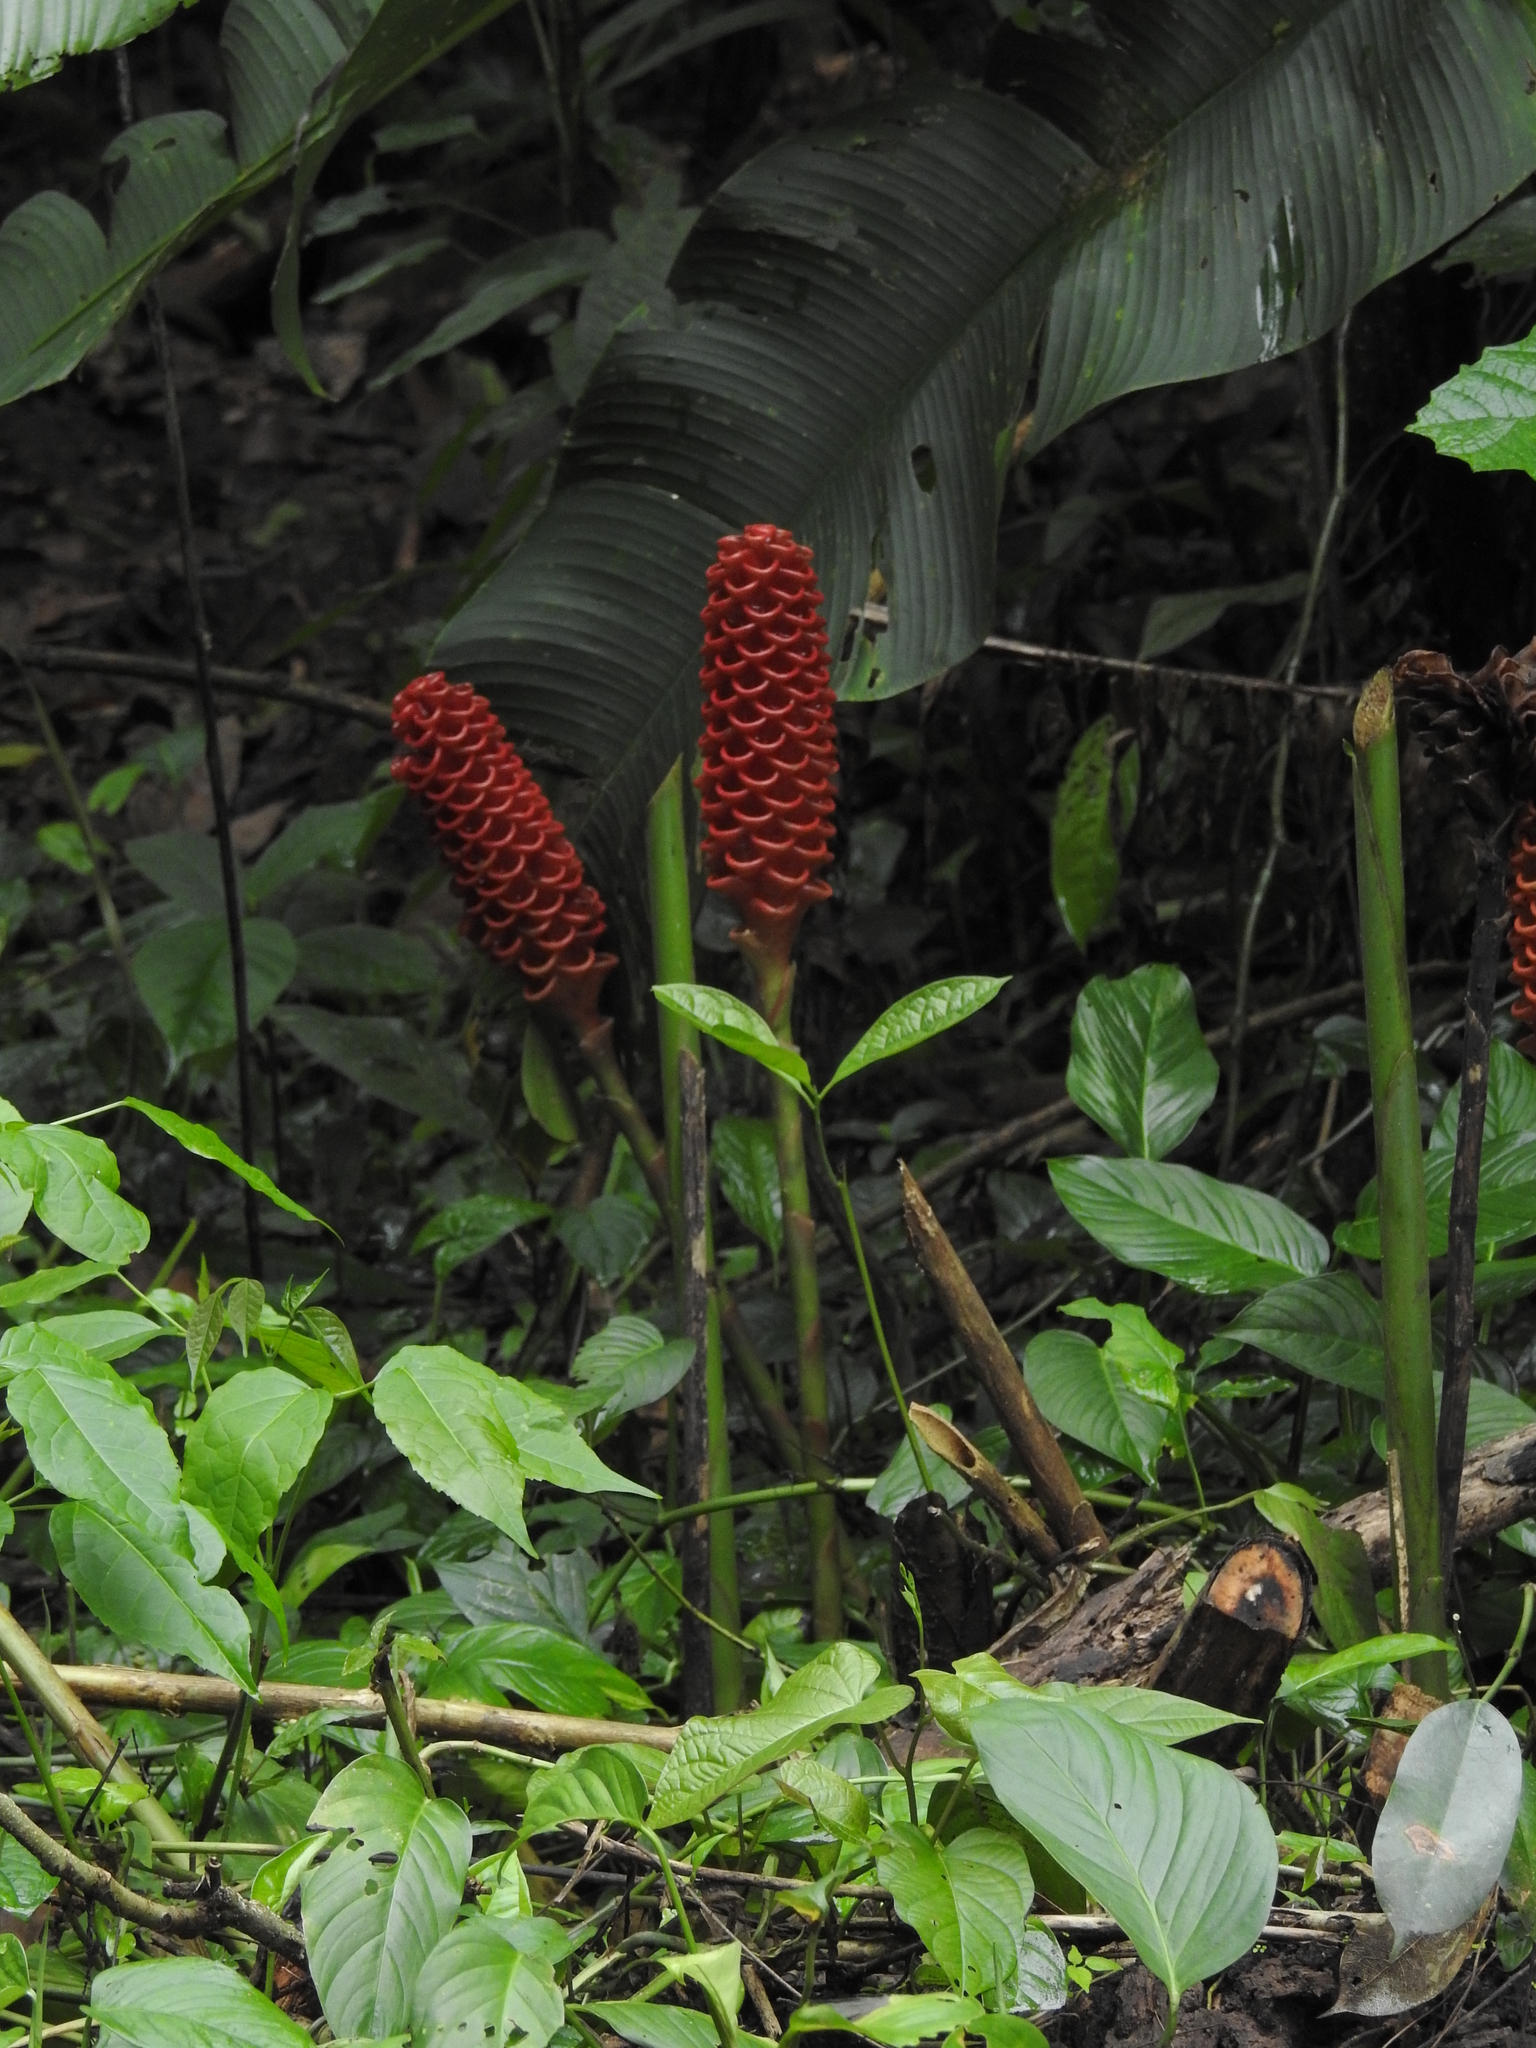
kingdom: Plantae
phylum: Tracheophyta
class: Liliopsida
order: Zingiberales
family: Zingiberaceae
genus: Zingiber
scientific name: Zingiber zerumbet
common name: Bitter ginger
